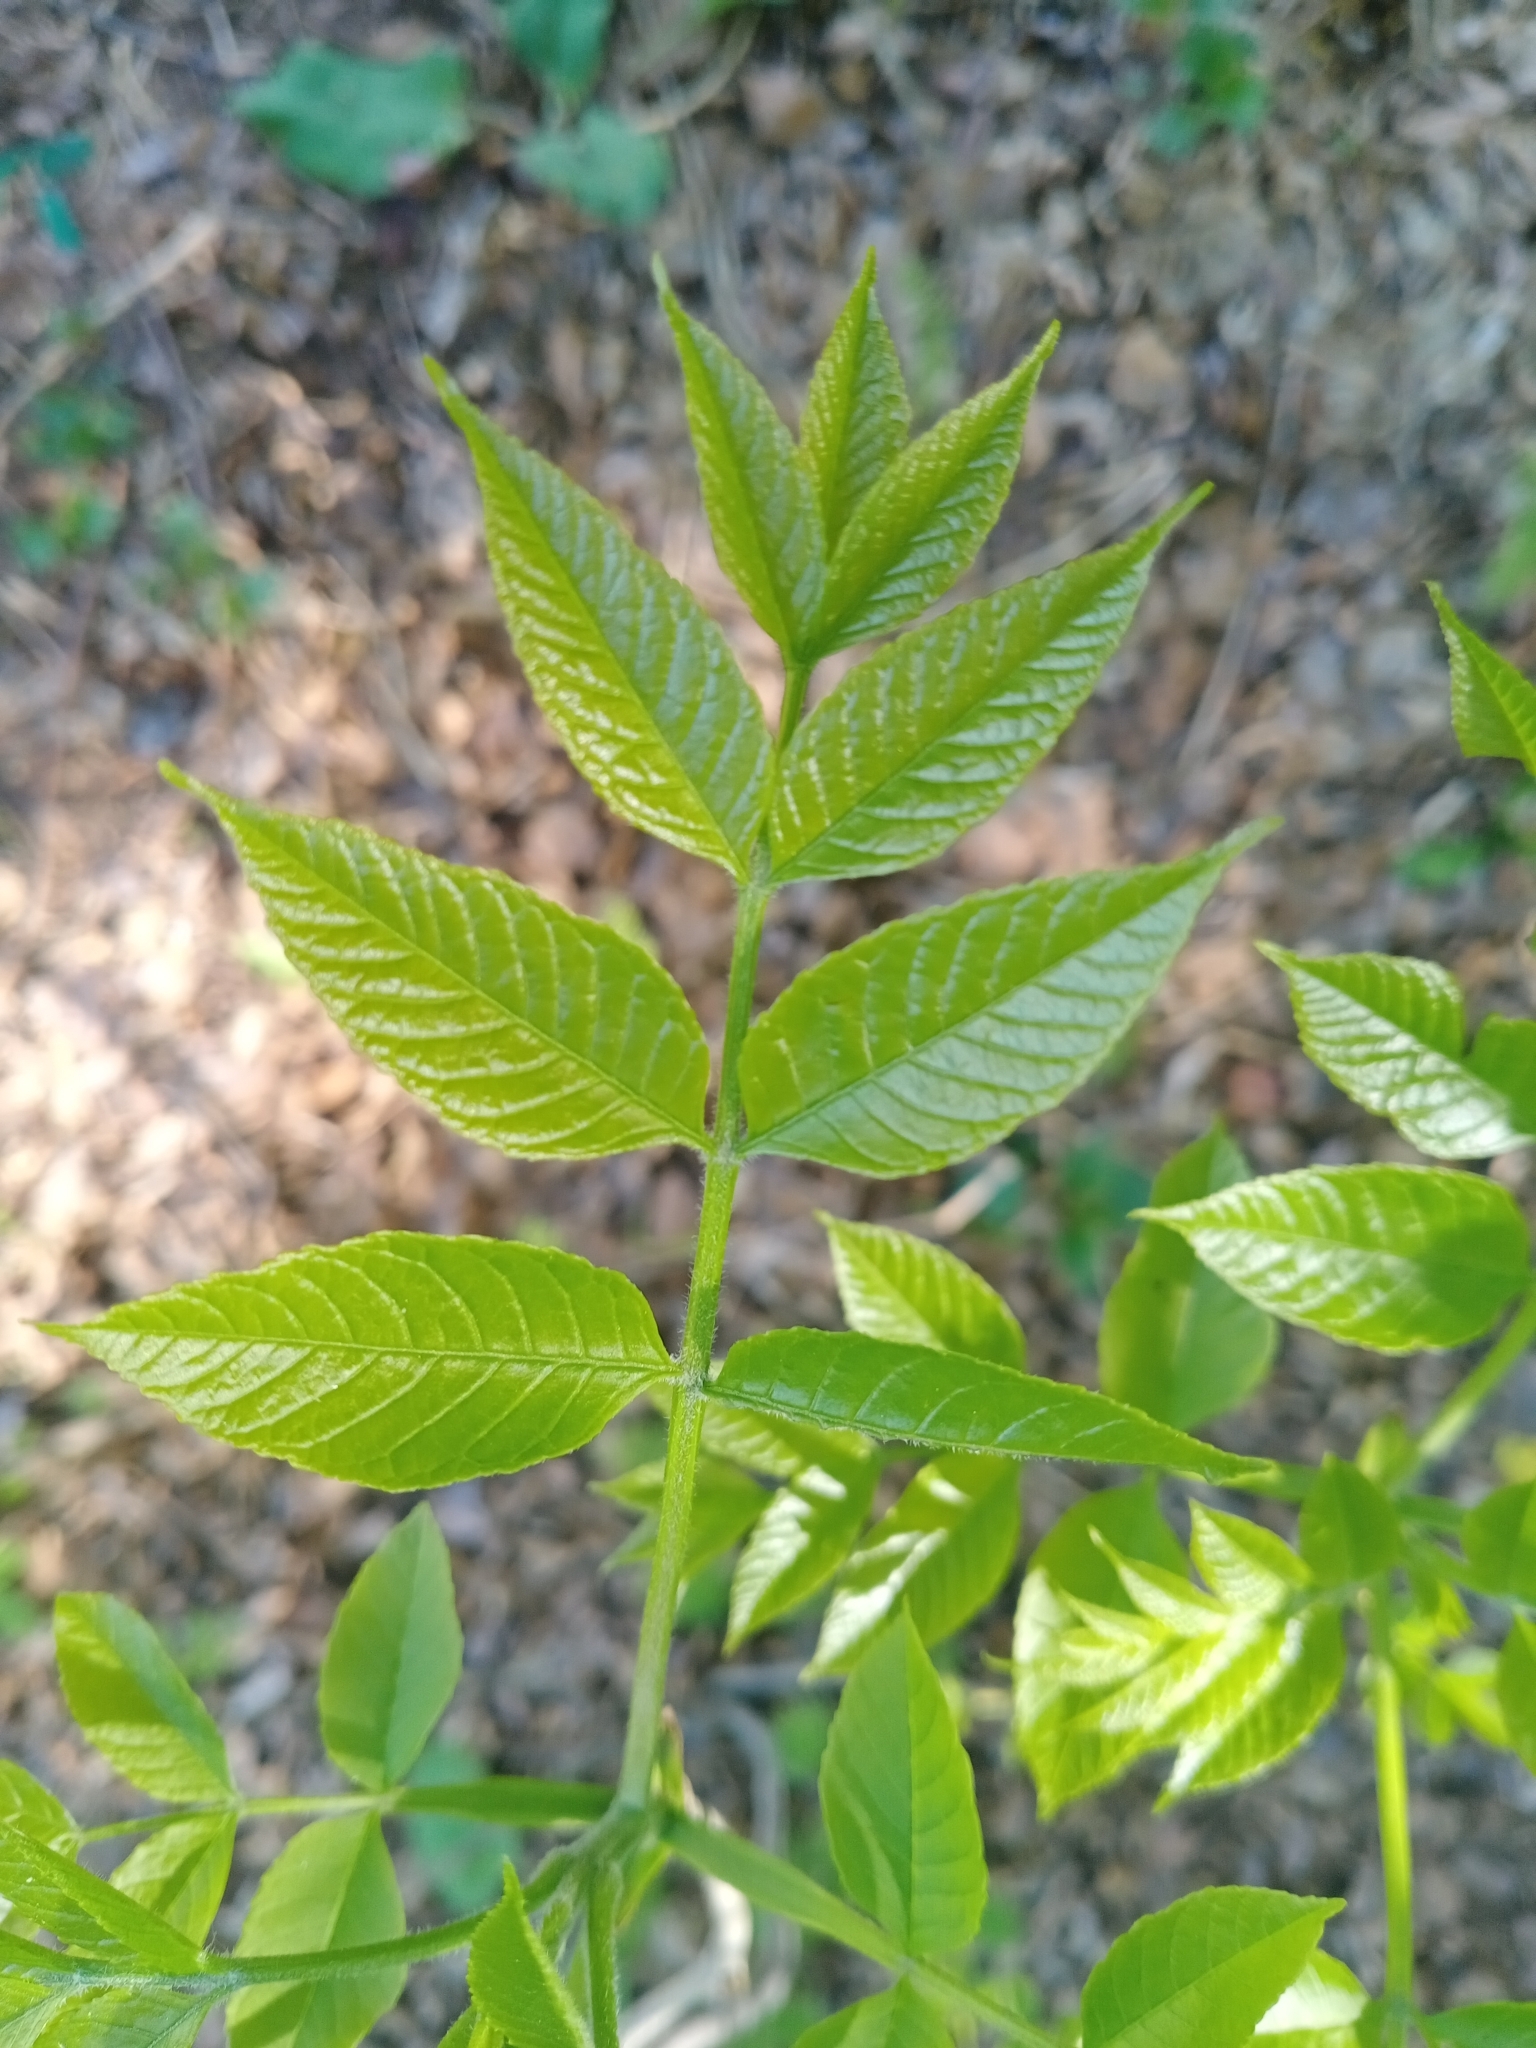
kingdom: Plantae
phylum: Tracheophyta
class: Magnoliopsida
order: Lamiales
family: Oleaceae
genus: Fraxinus
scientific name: Fraxinus pennsylvanica
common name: Green ash
